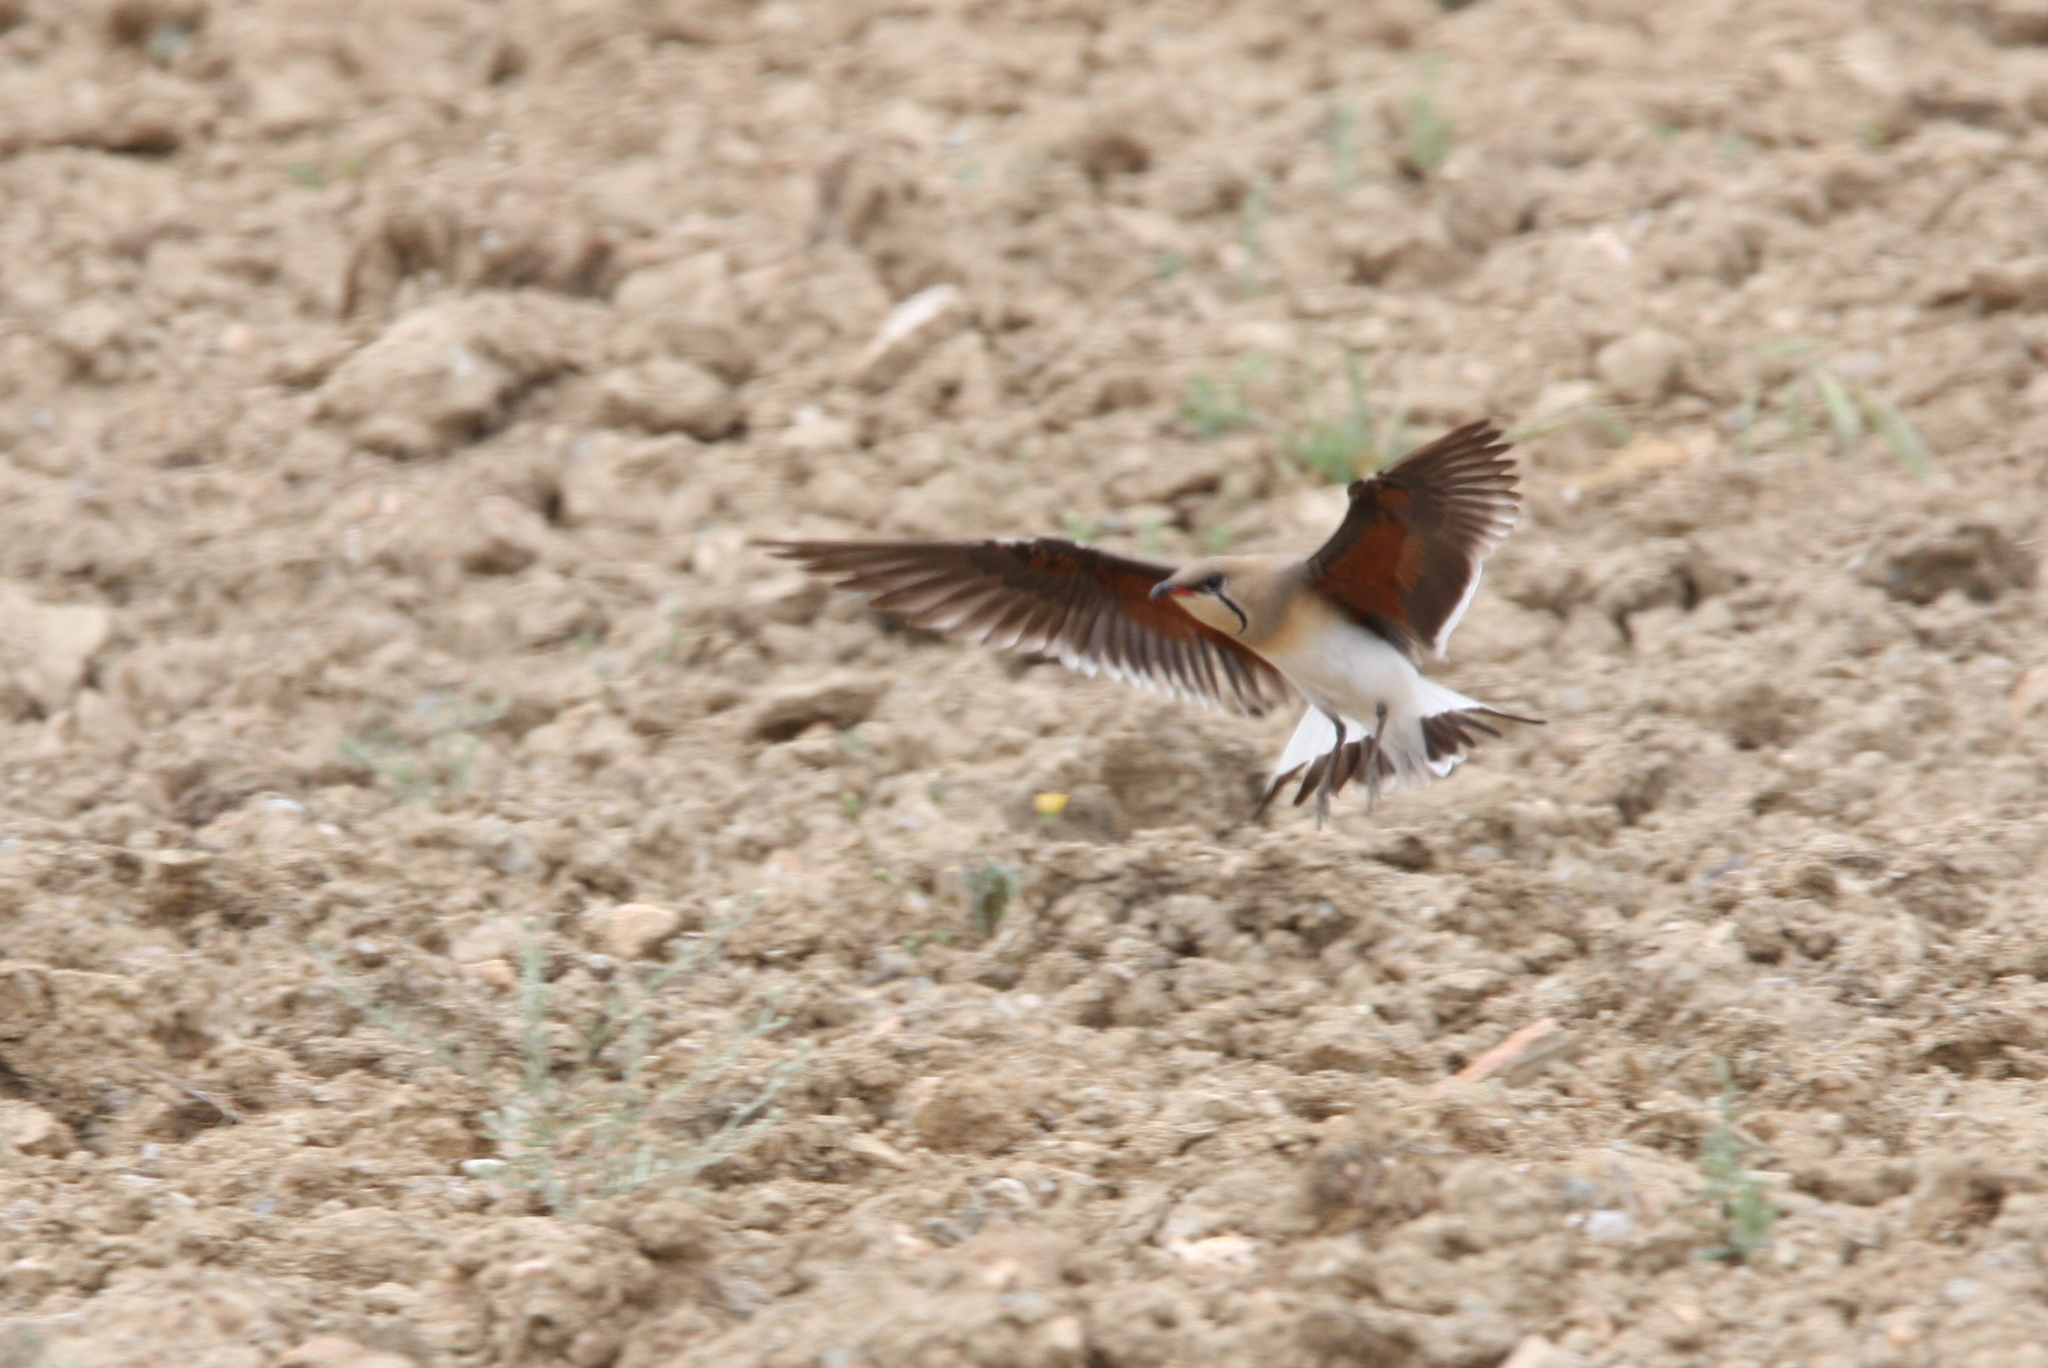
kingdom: Animalia
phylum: Chordata
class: Aves
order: Charadriiformes
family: Glareolidae
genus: Glareola
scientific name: Glareola pratincola
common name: Collared pratincole
